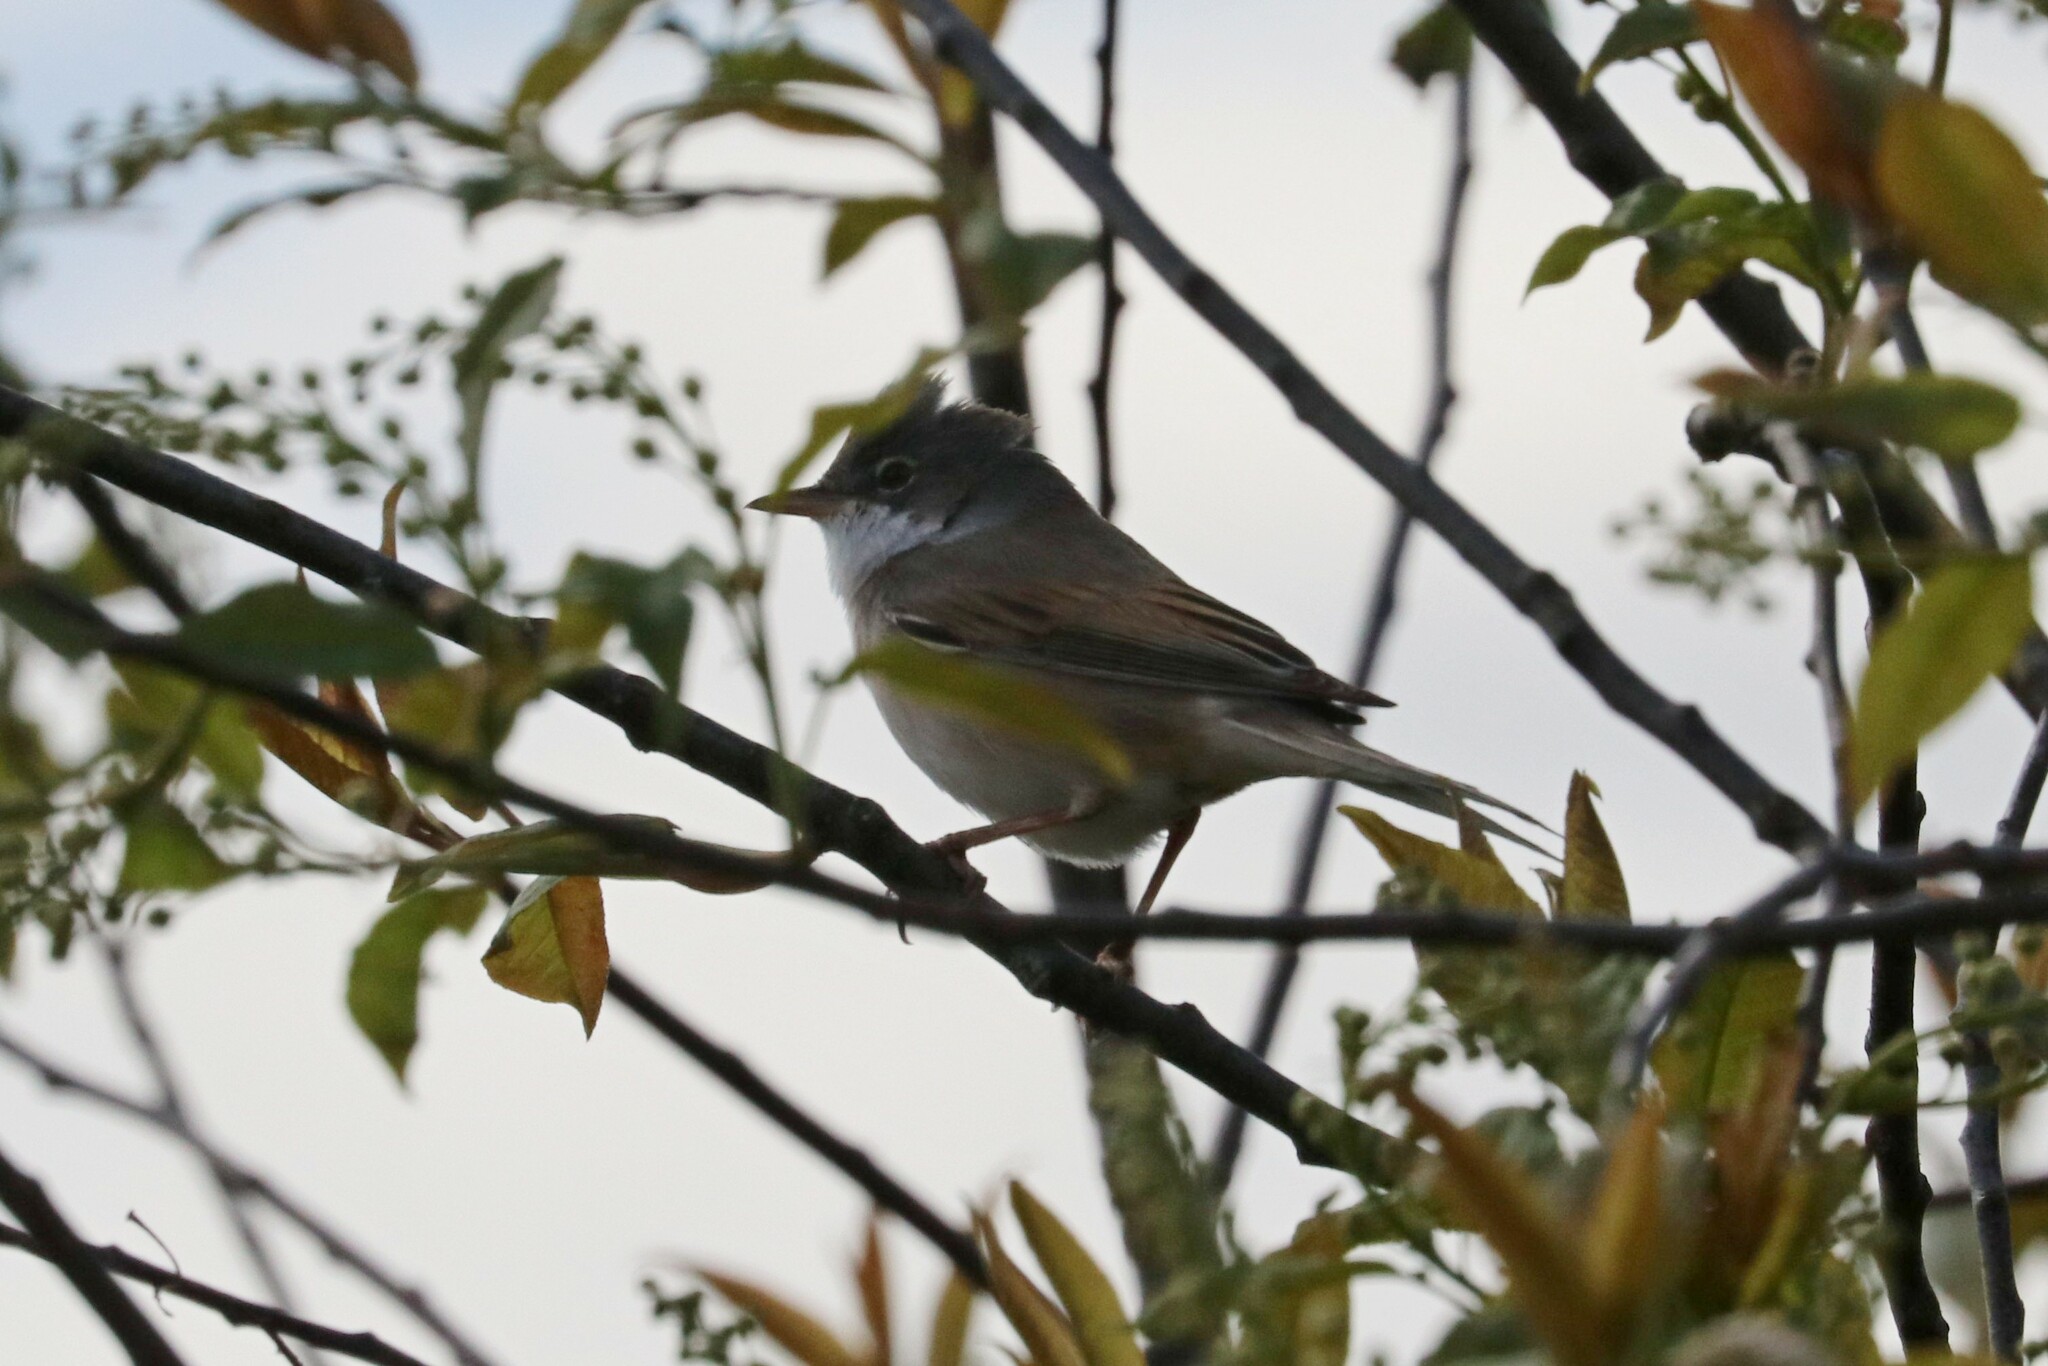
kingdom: Animalia
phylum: Chordata
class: Aves
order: Passeriformes
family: Sylviidae
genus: Sylvia
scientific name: Sylvia communis
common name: Common whitethroat
